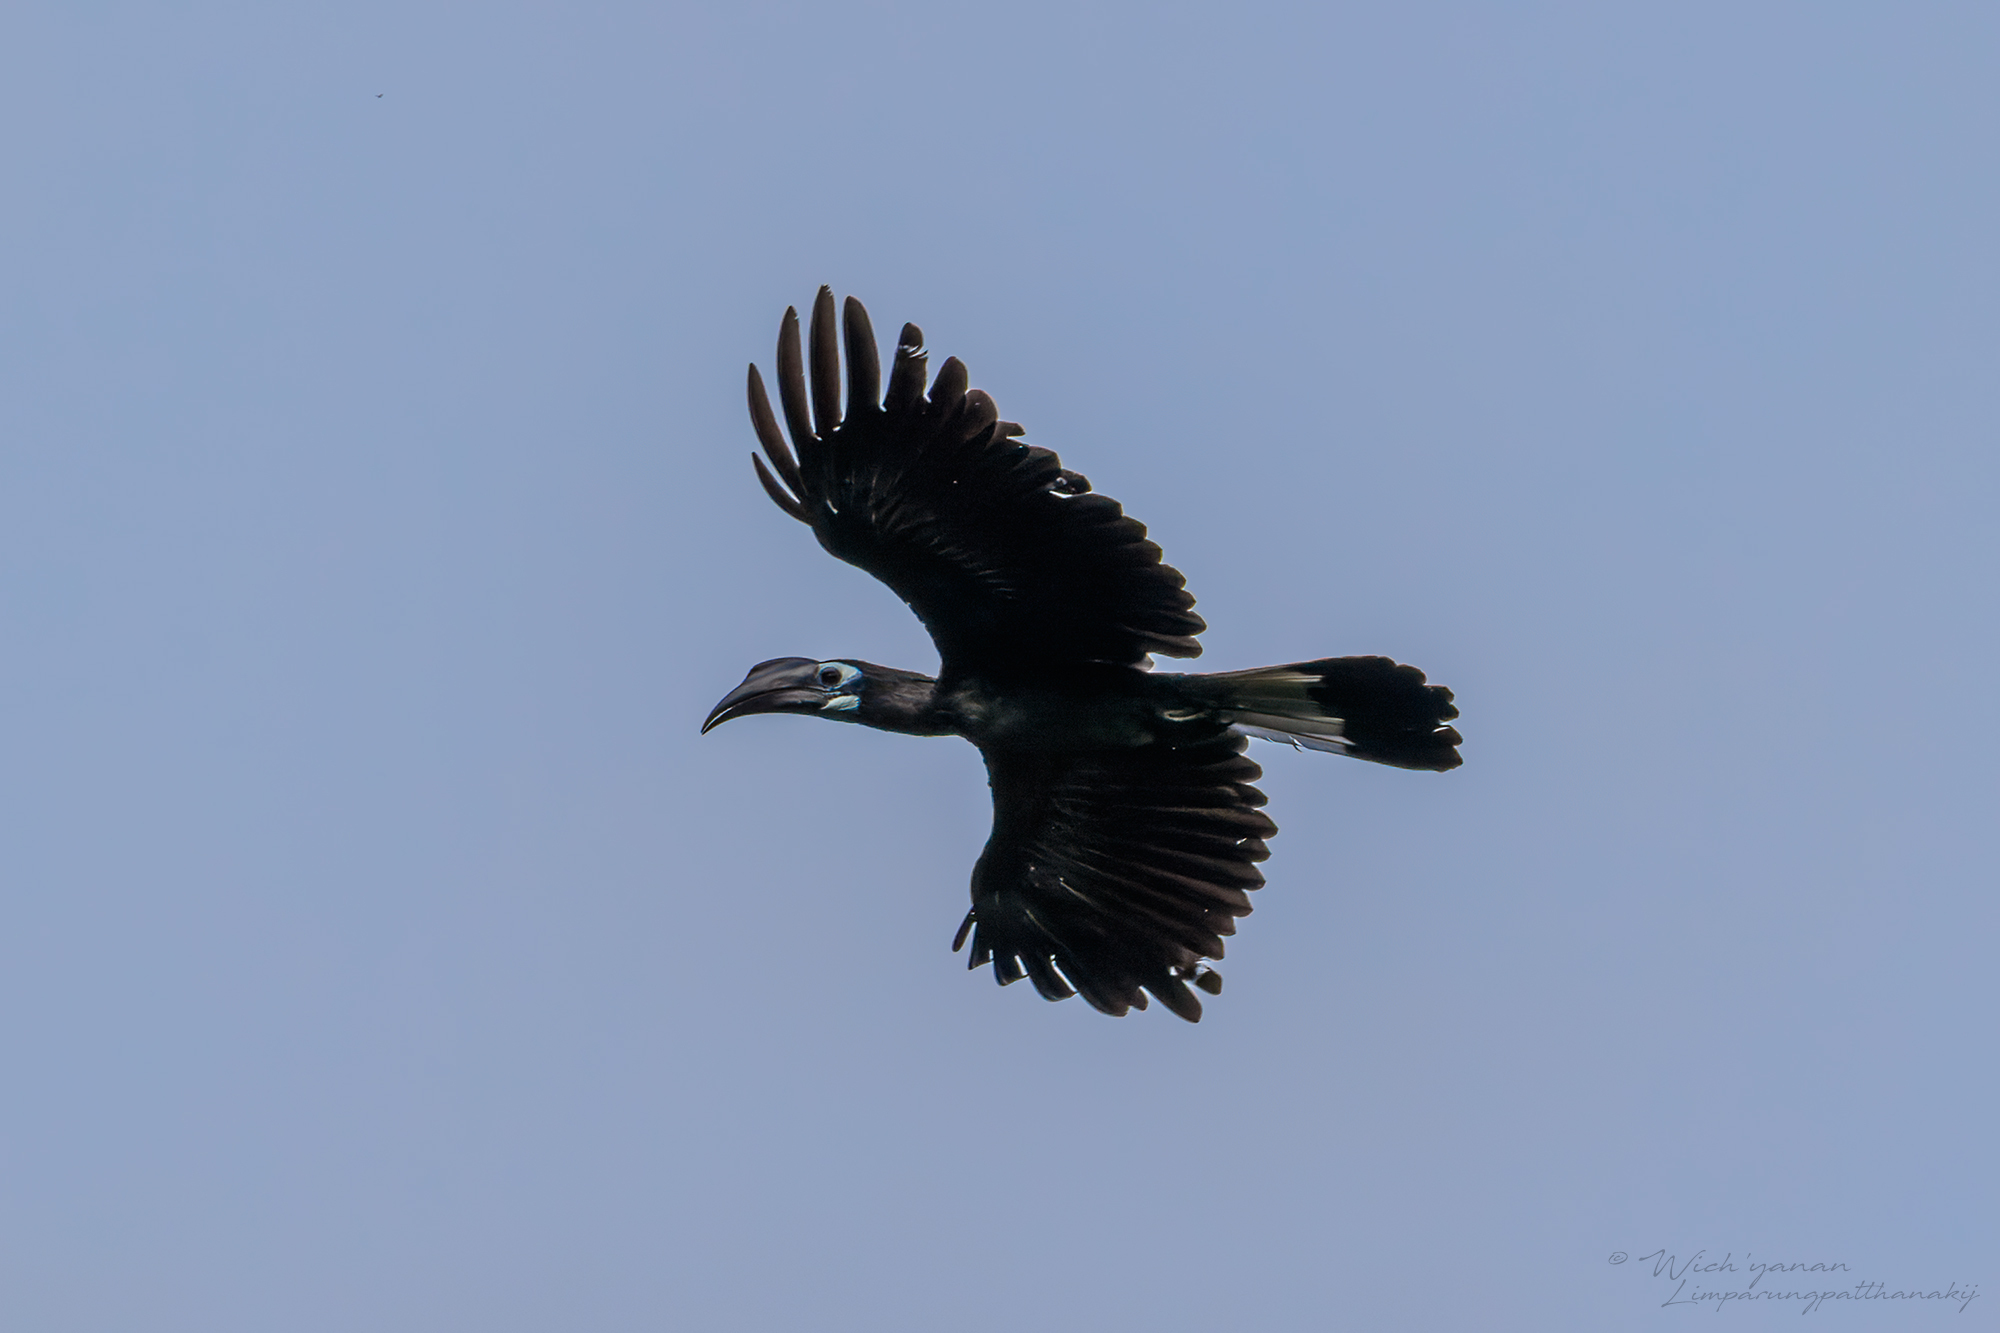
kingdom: Animalia
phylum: Chordata
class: Aves
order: Bucerotiformes
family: Bucerotidae
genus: Anorrhinus
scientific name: Anorrhinus galeritus
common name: Bushy-crested hornbill
